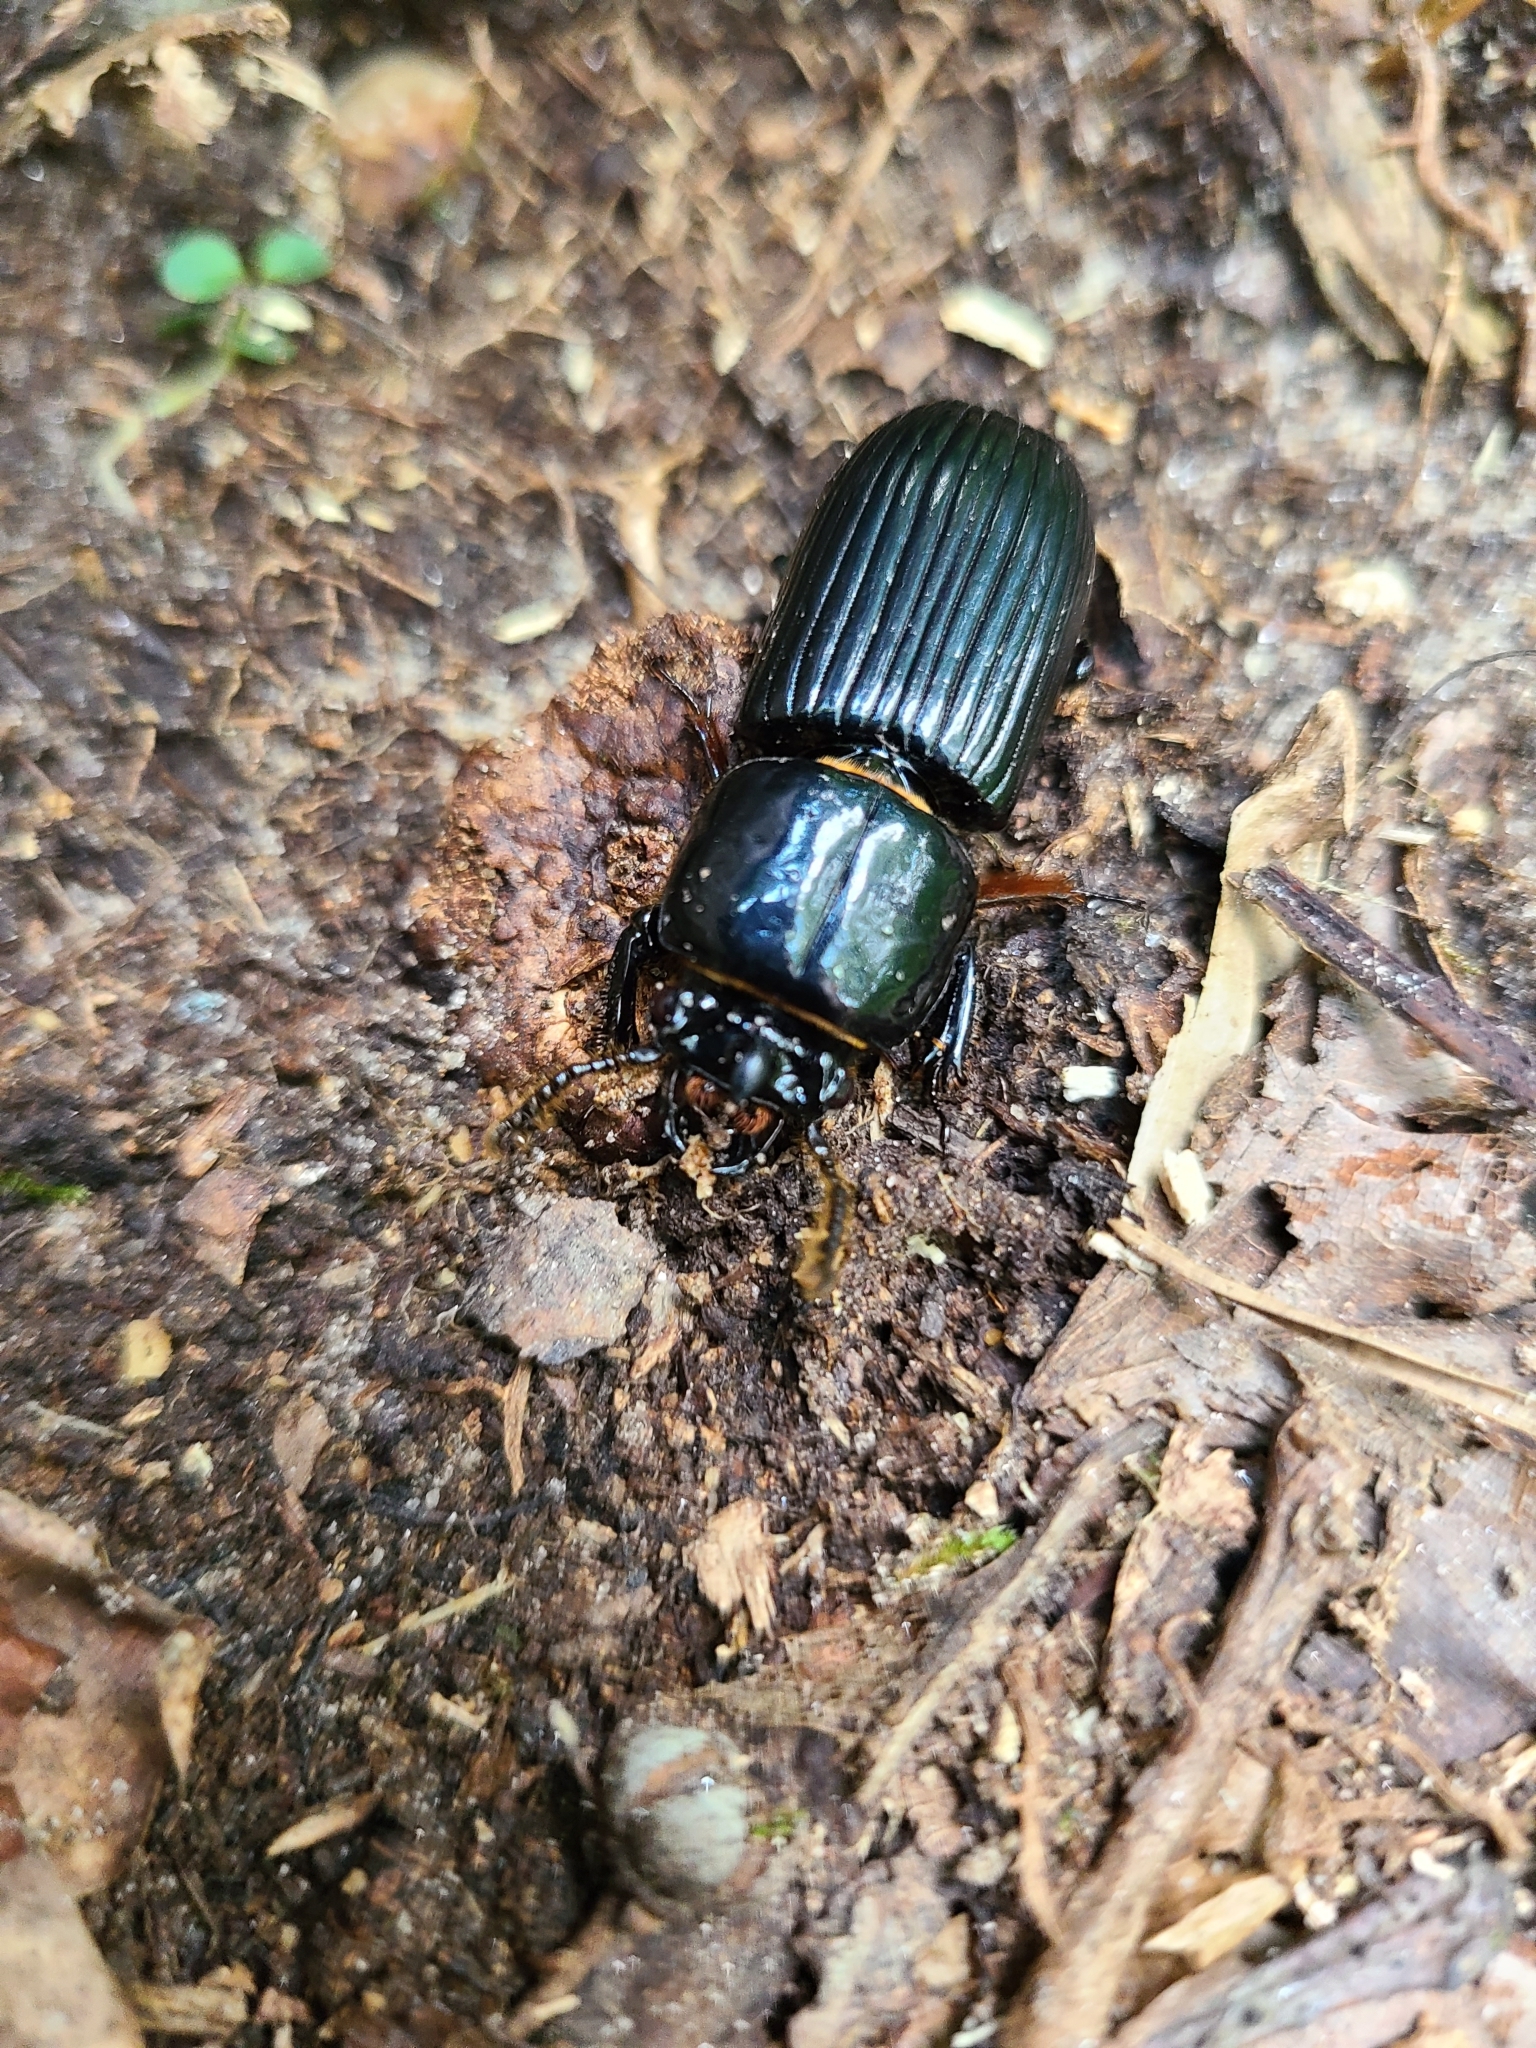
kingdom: Animalia
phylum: Arthropoda
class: Insecta
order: Coleoptera
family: Passalidae
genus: Odontotaenius
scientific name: Odontotaenius disjunctus
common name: Patent leather beetle
